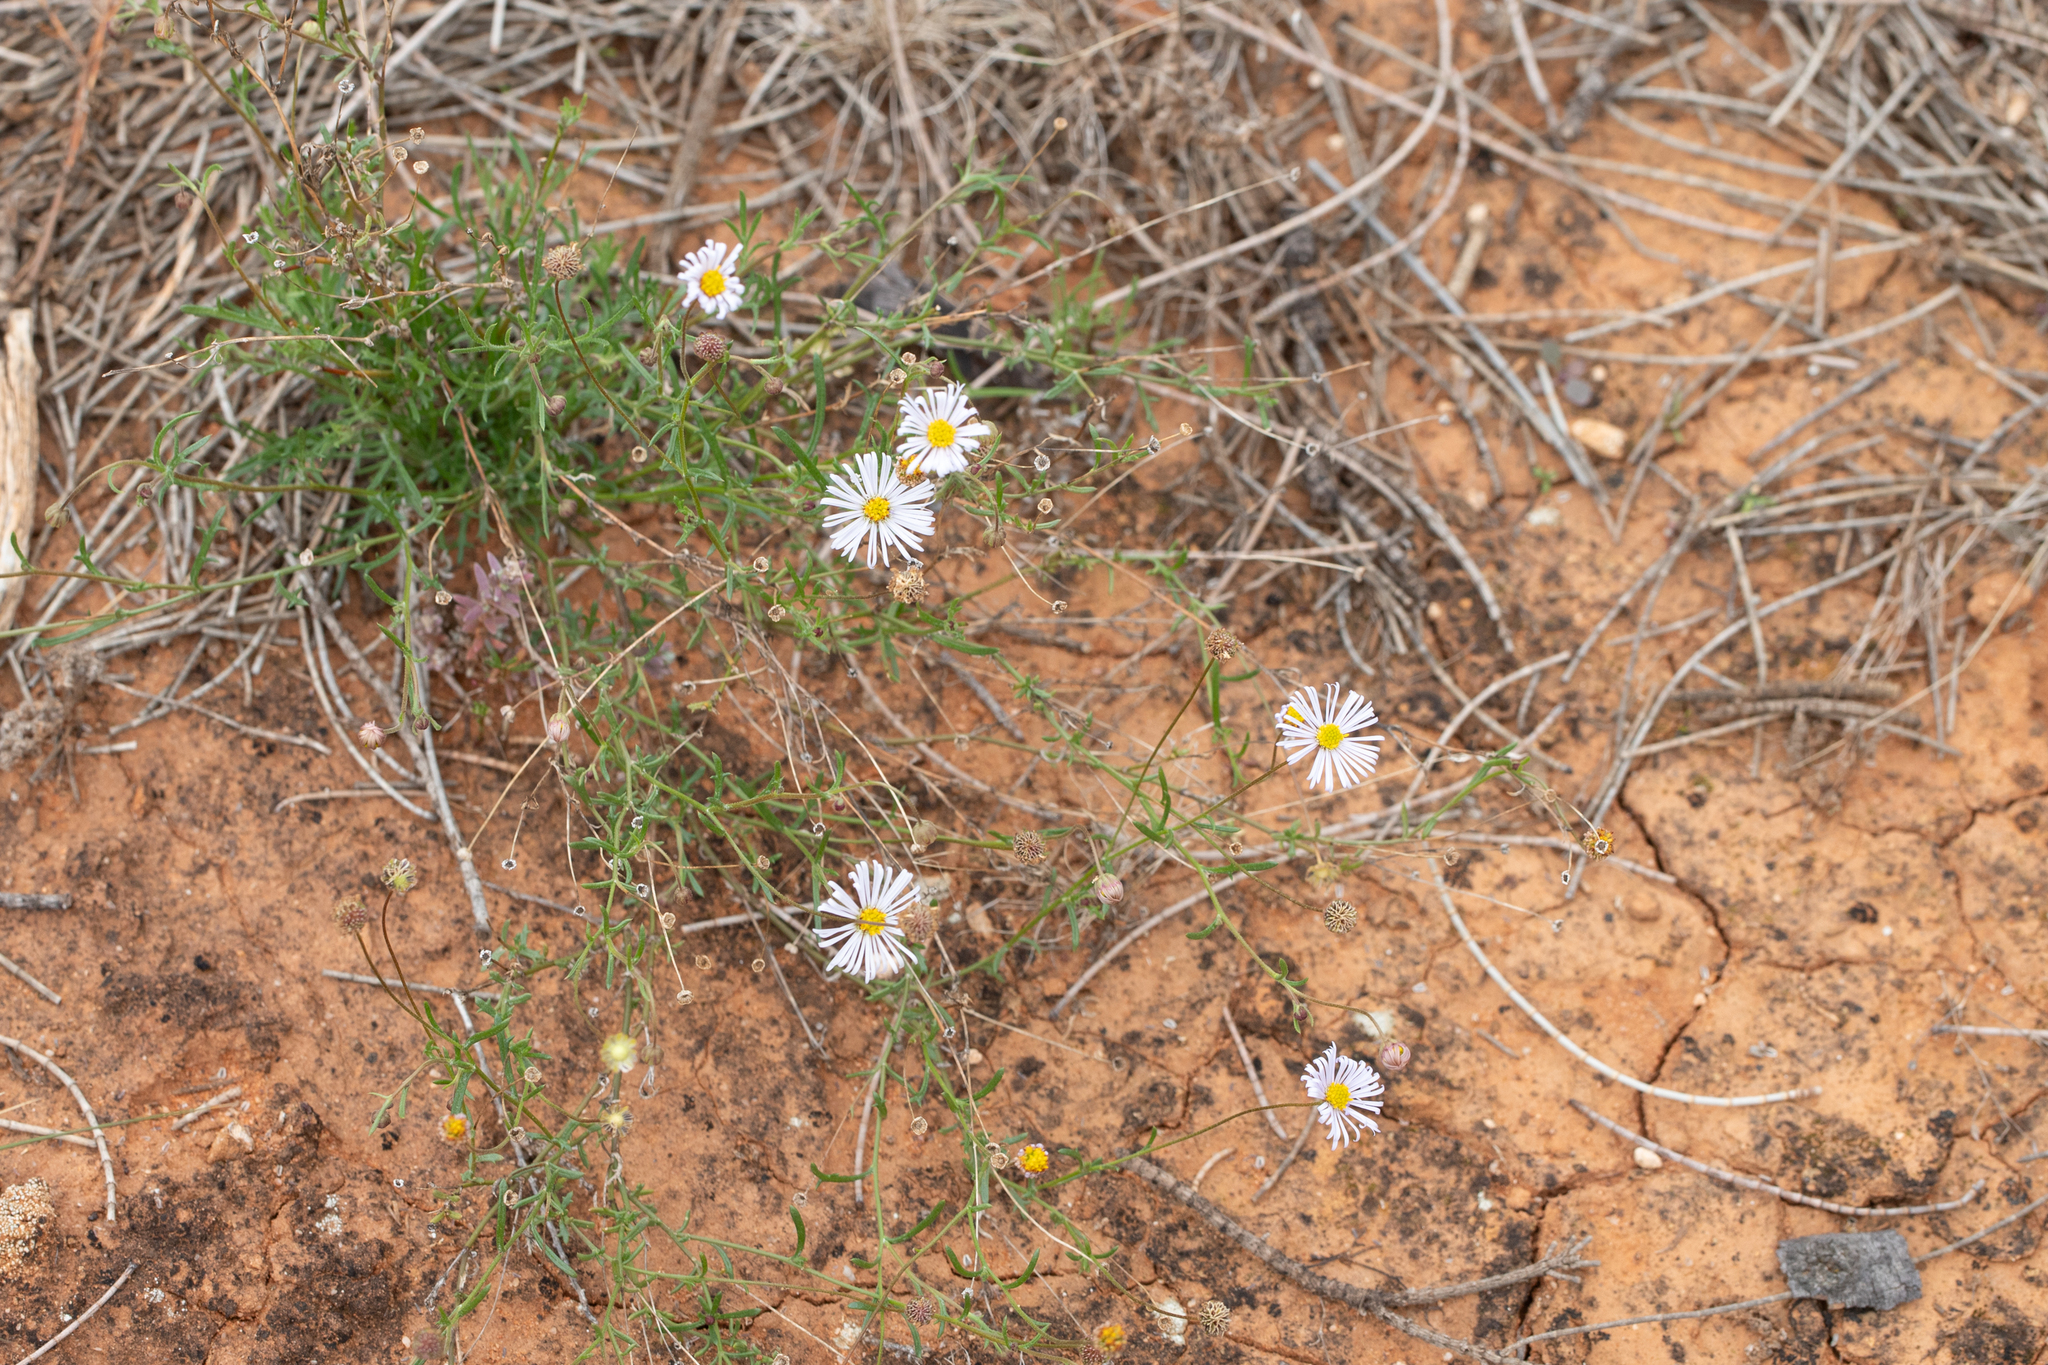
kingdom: Plantae
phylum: Tracheophyta
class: Magnoliopsida
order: Asterales
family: Asteraceae
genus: Brachyscome
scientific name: Brachyscome ciliaris
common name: Variable daisy
